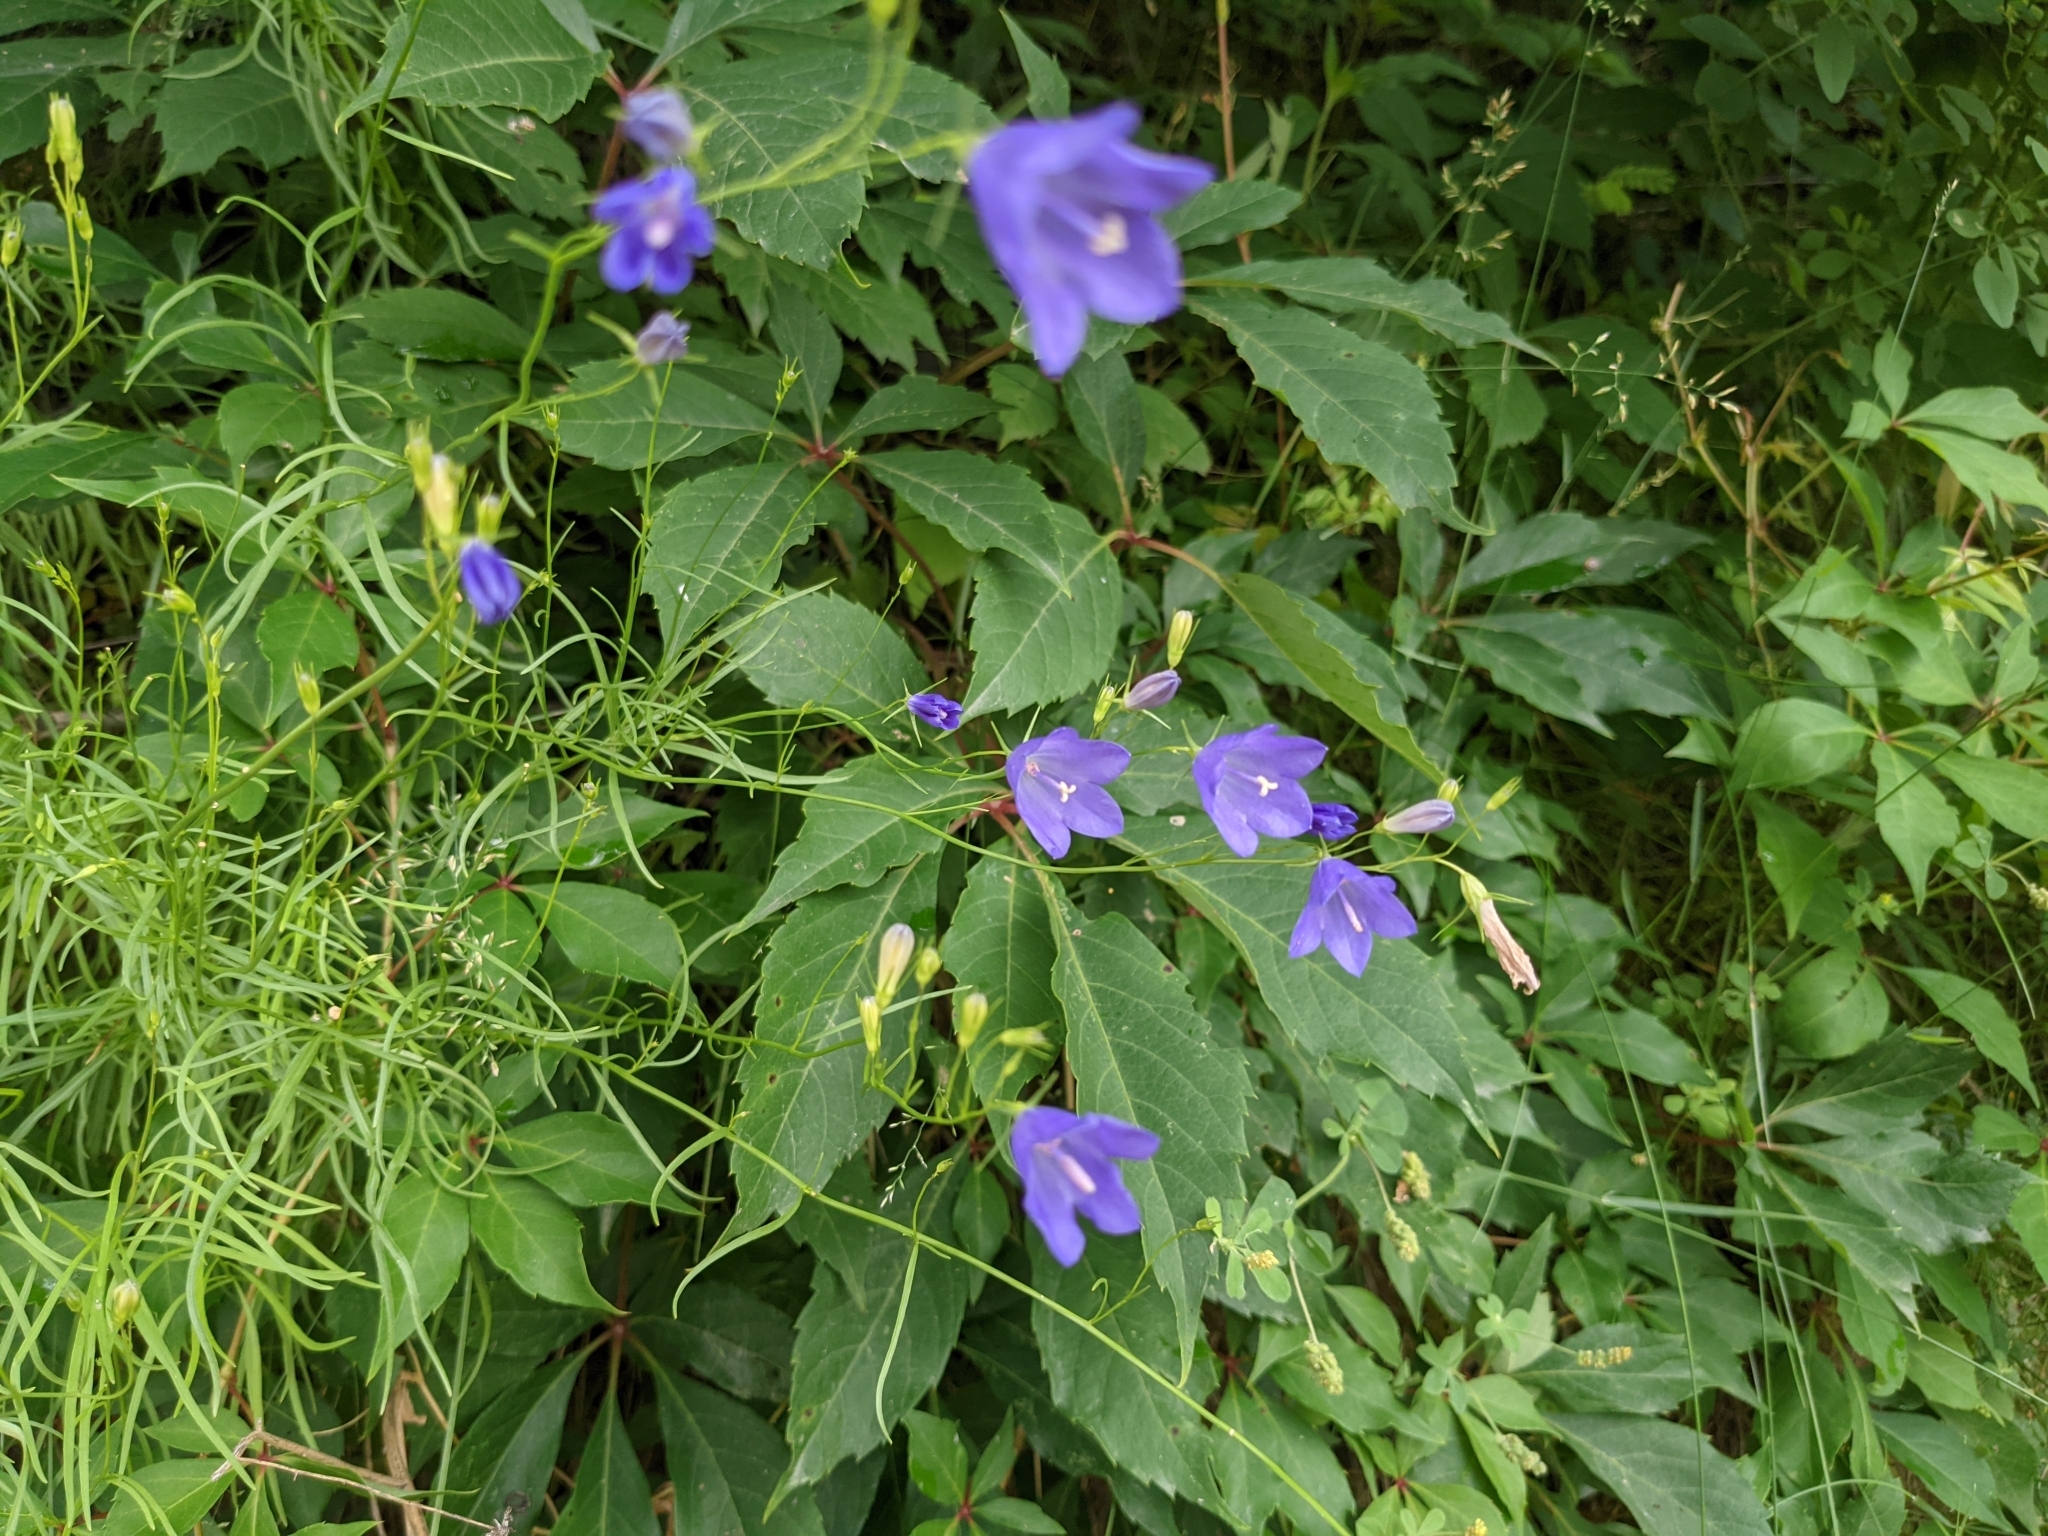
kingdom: Plantae
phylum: Tracheophyta
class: Magnoliopsida
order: Asterales
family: Campanulaceae
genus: Campanula
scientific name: Campanula intercedens
